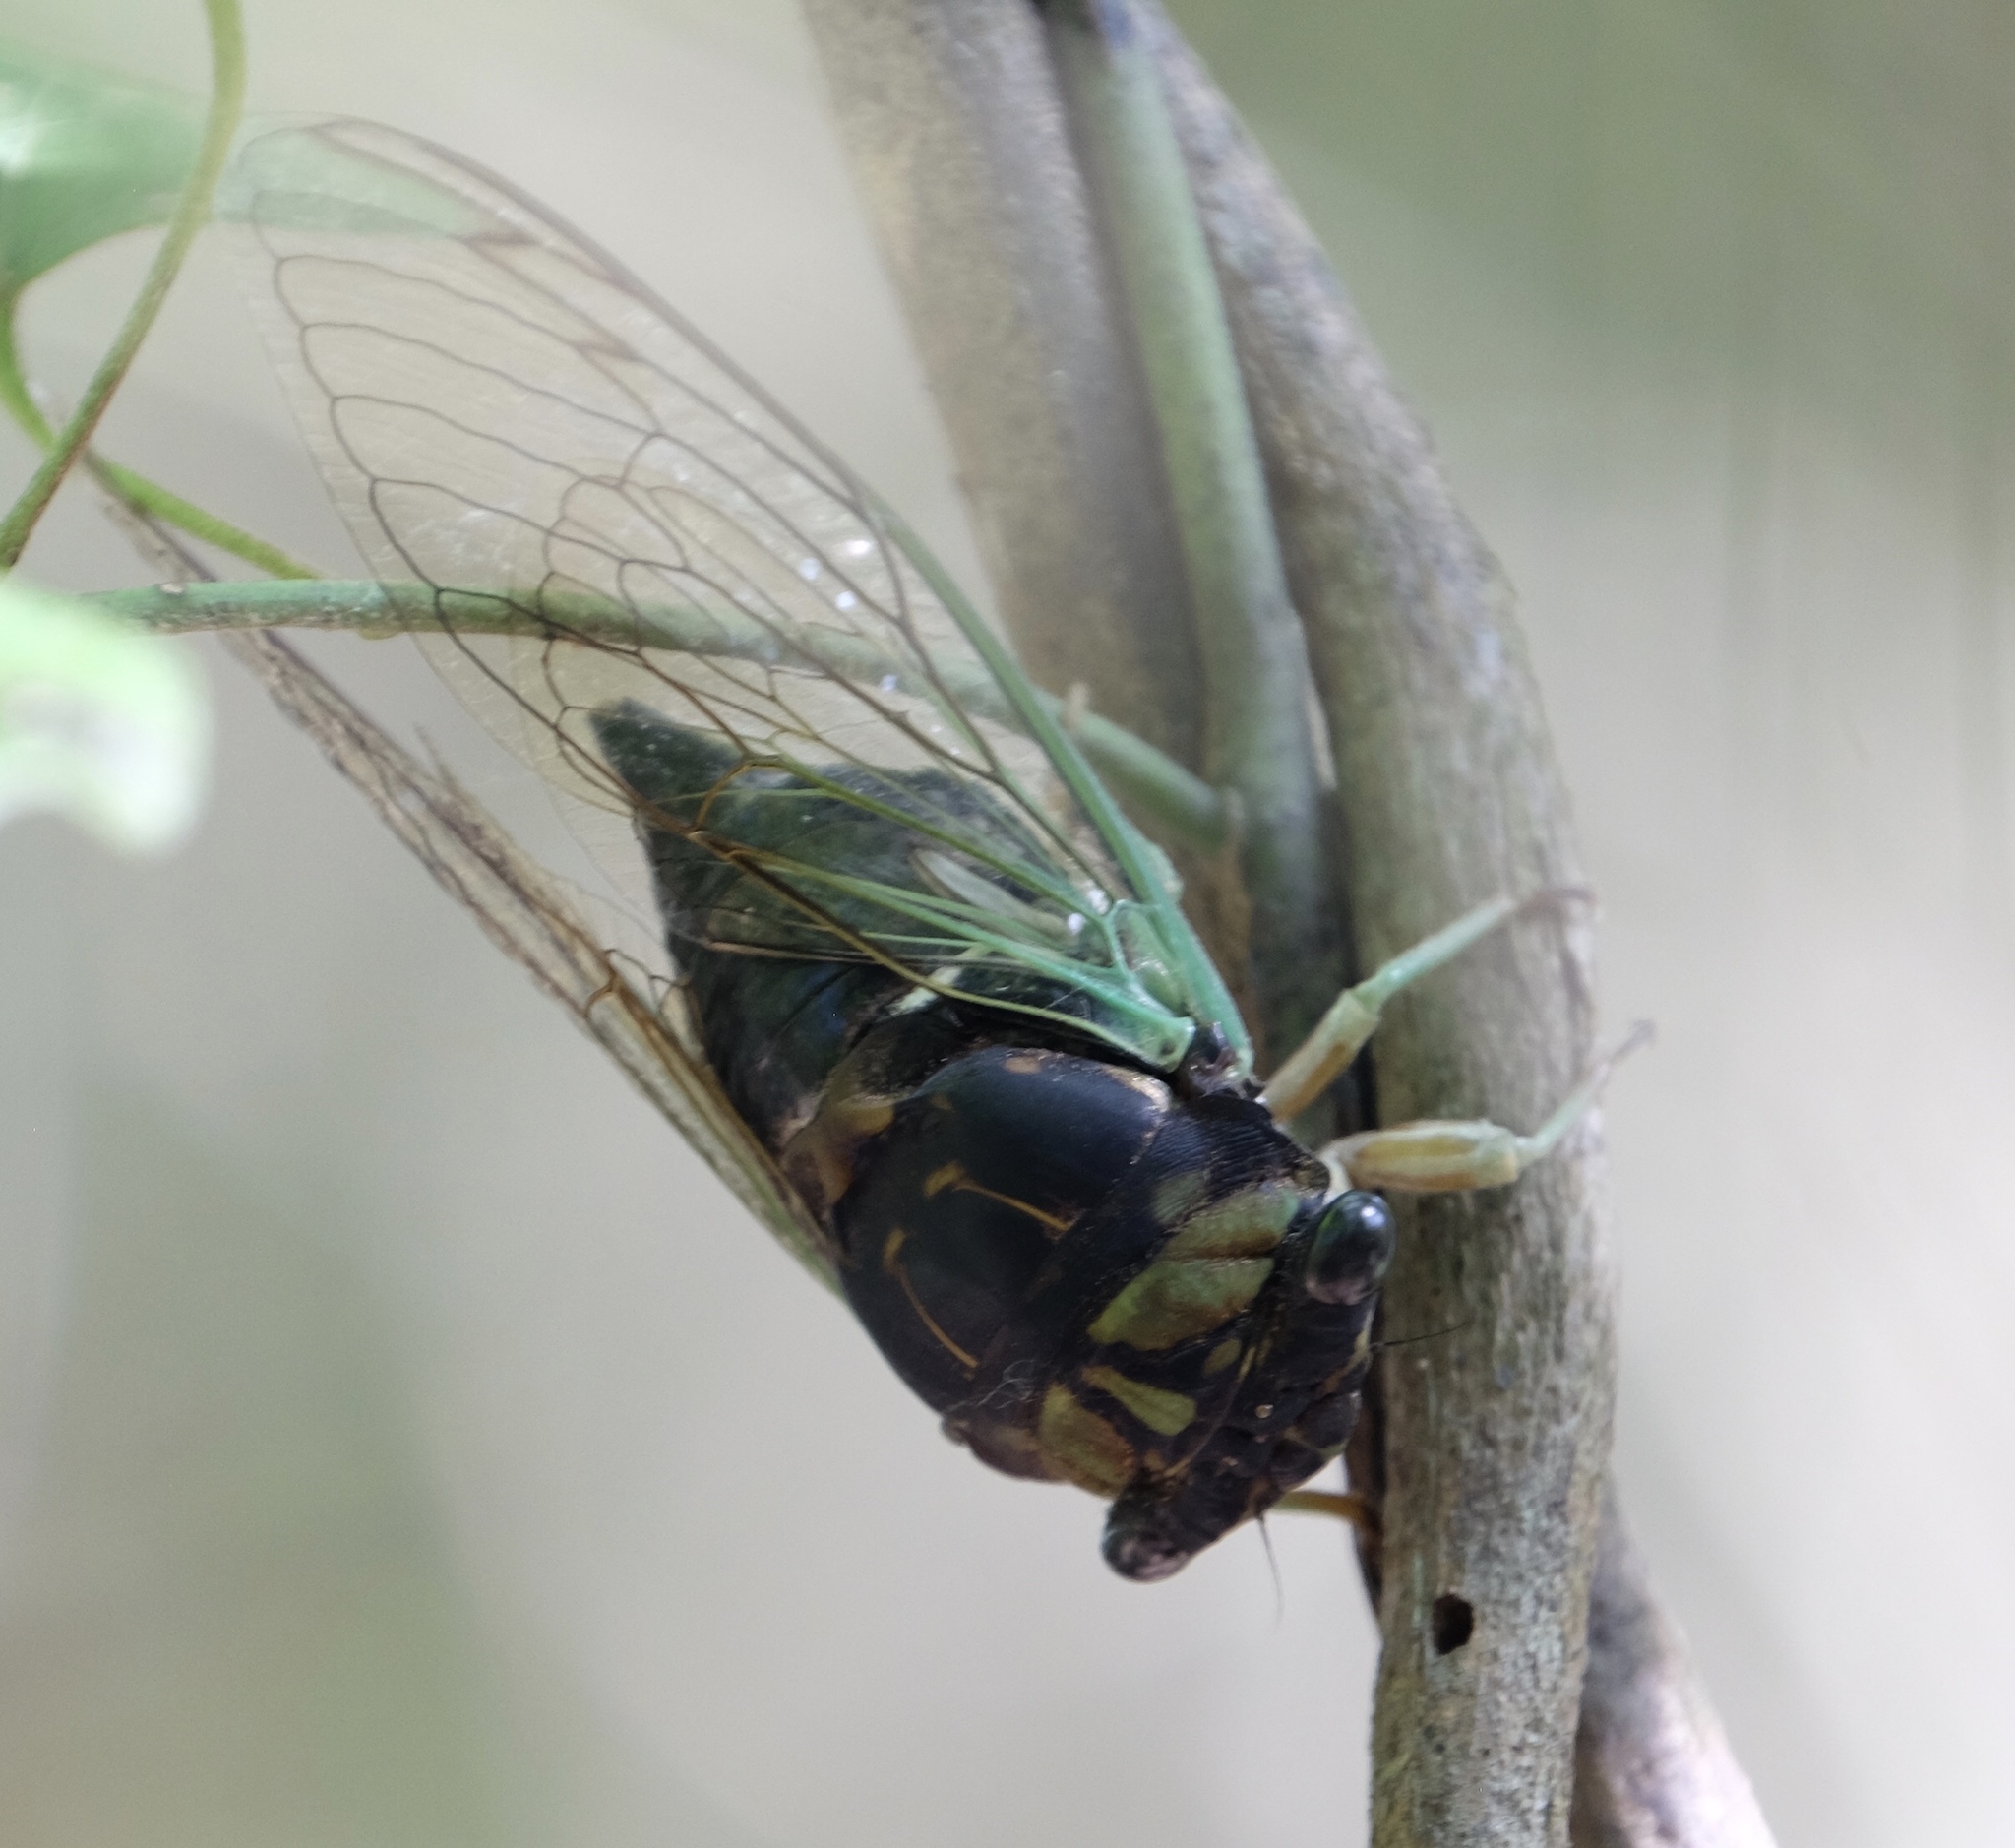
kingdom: Animalia
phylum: Arthropoda
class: Insecta
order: Hemiptera
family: Cicadidae
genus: Neotibicen
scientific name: Neotibicen tibicen
